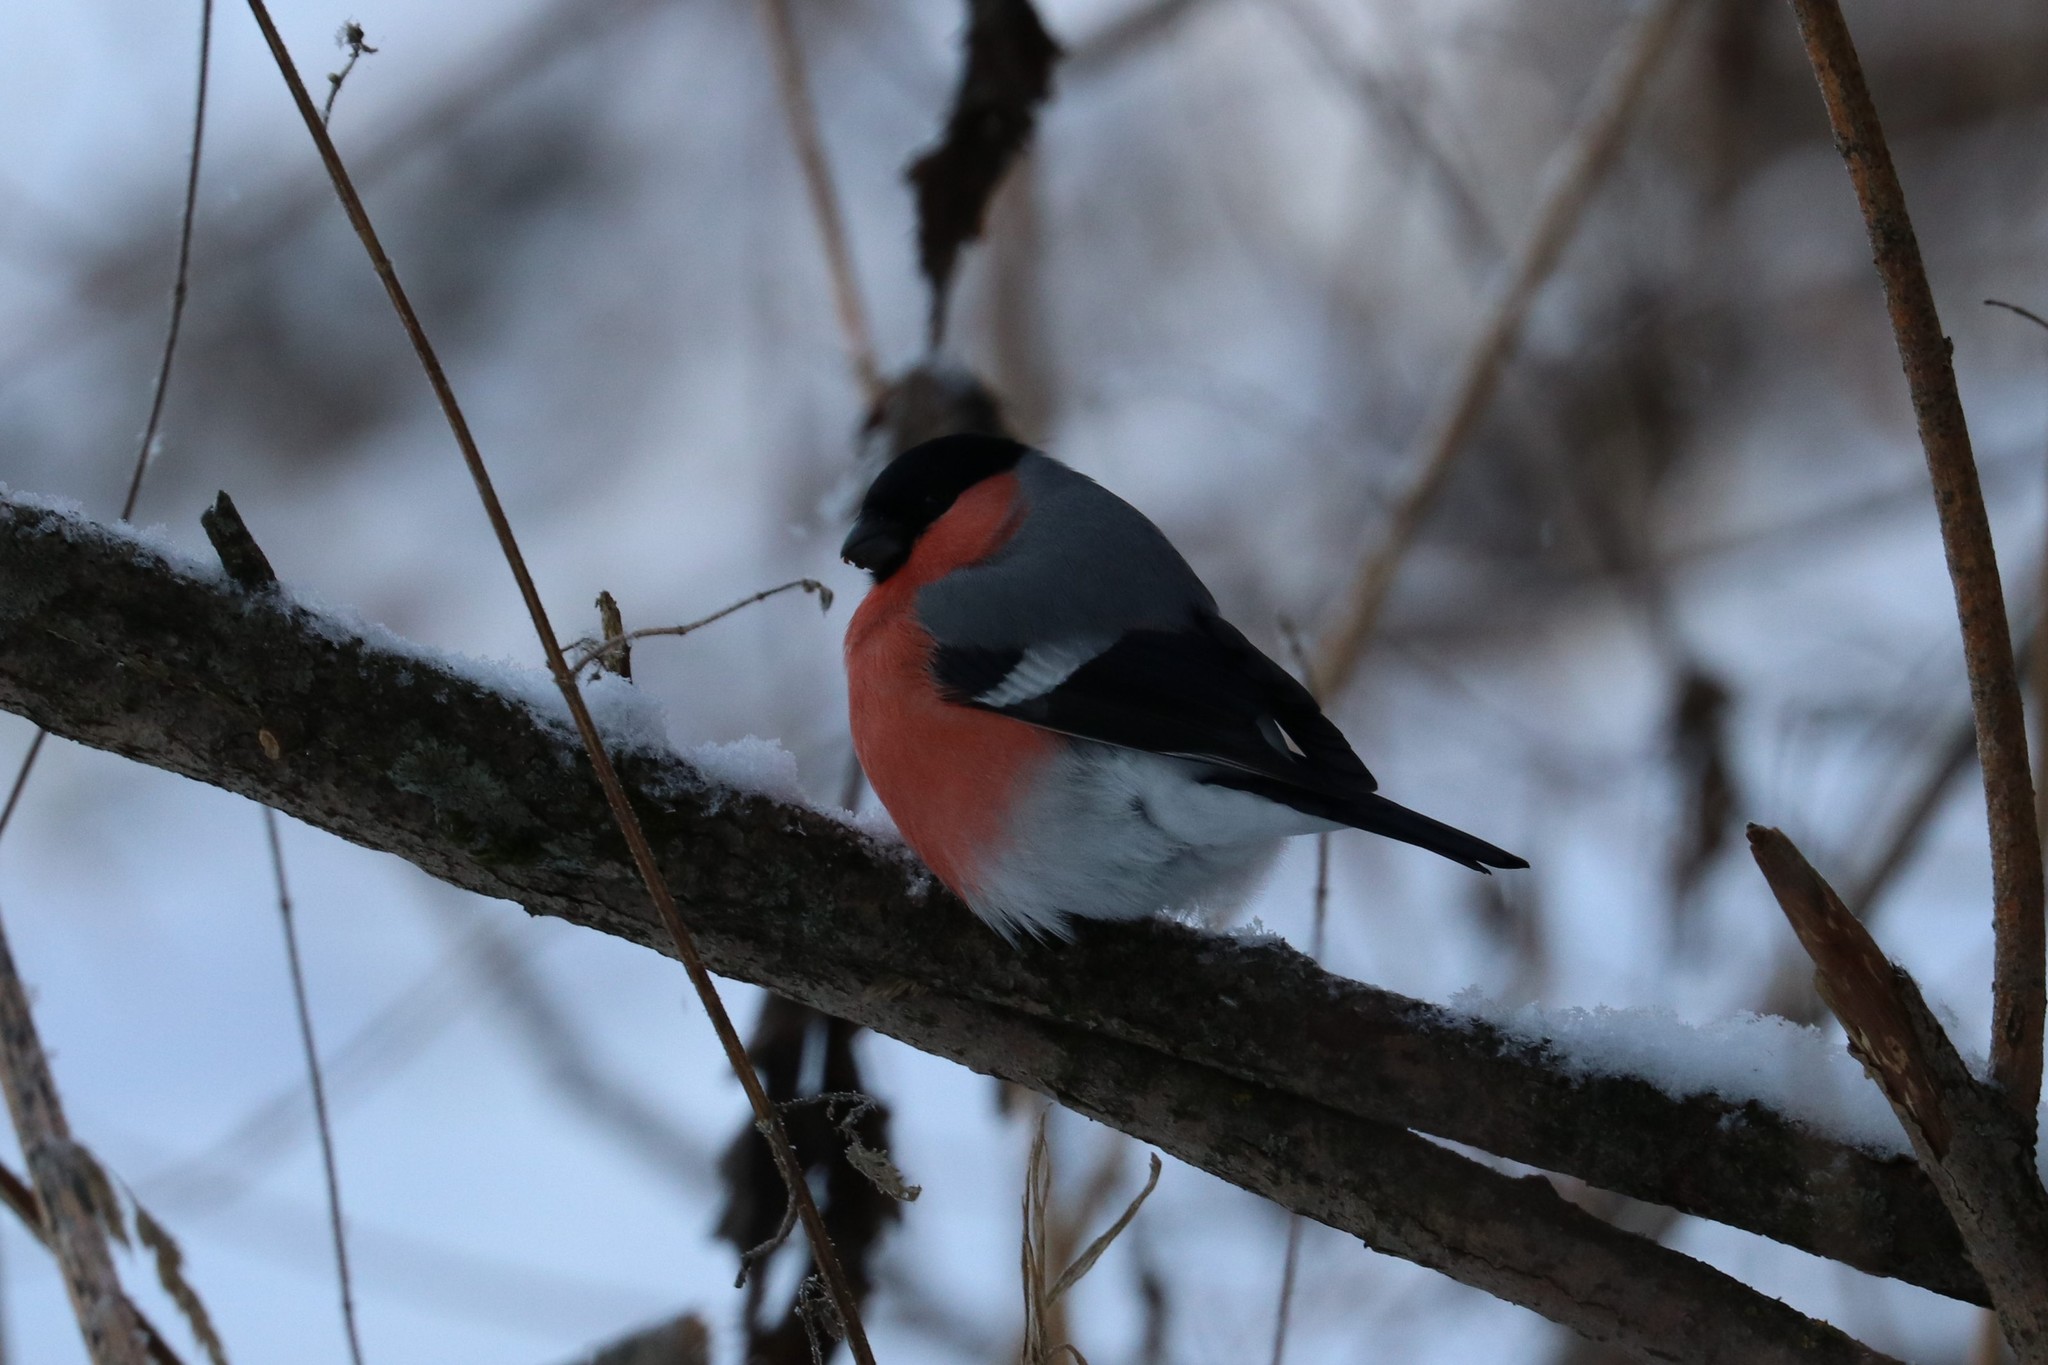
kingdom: Animalia
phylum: Chordata
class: Aves
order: Passeriformes
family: Fringillidae
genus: Pyrrhula
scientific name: Pyrrhula pyrrhula
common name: Eurasian bullfinch
